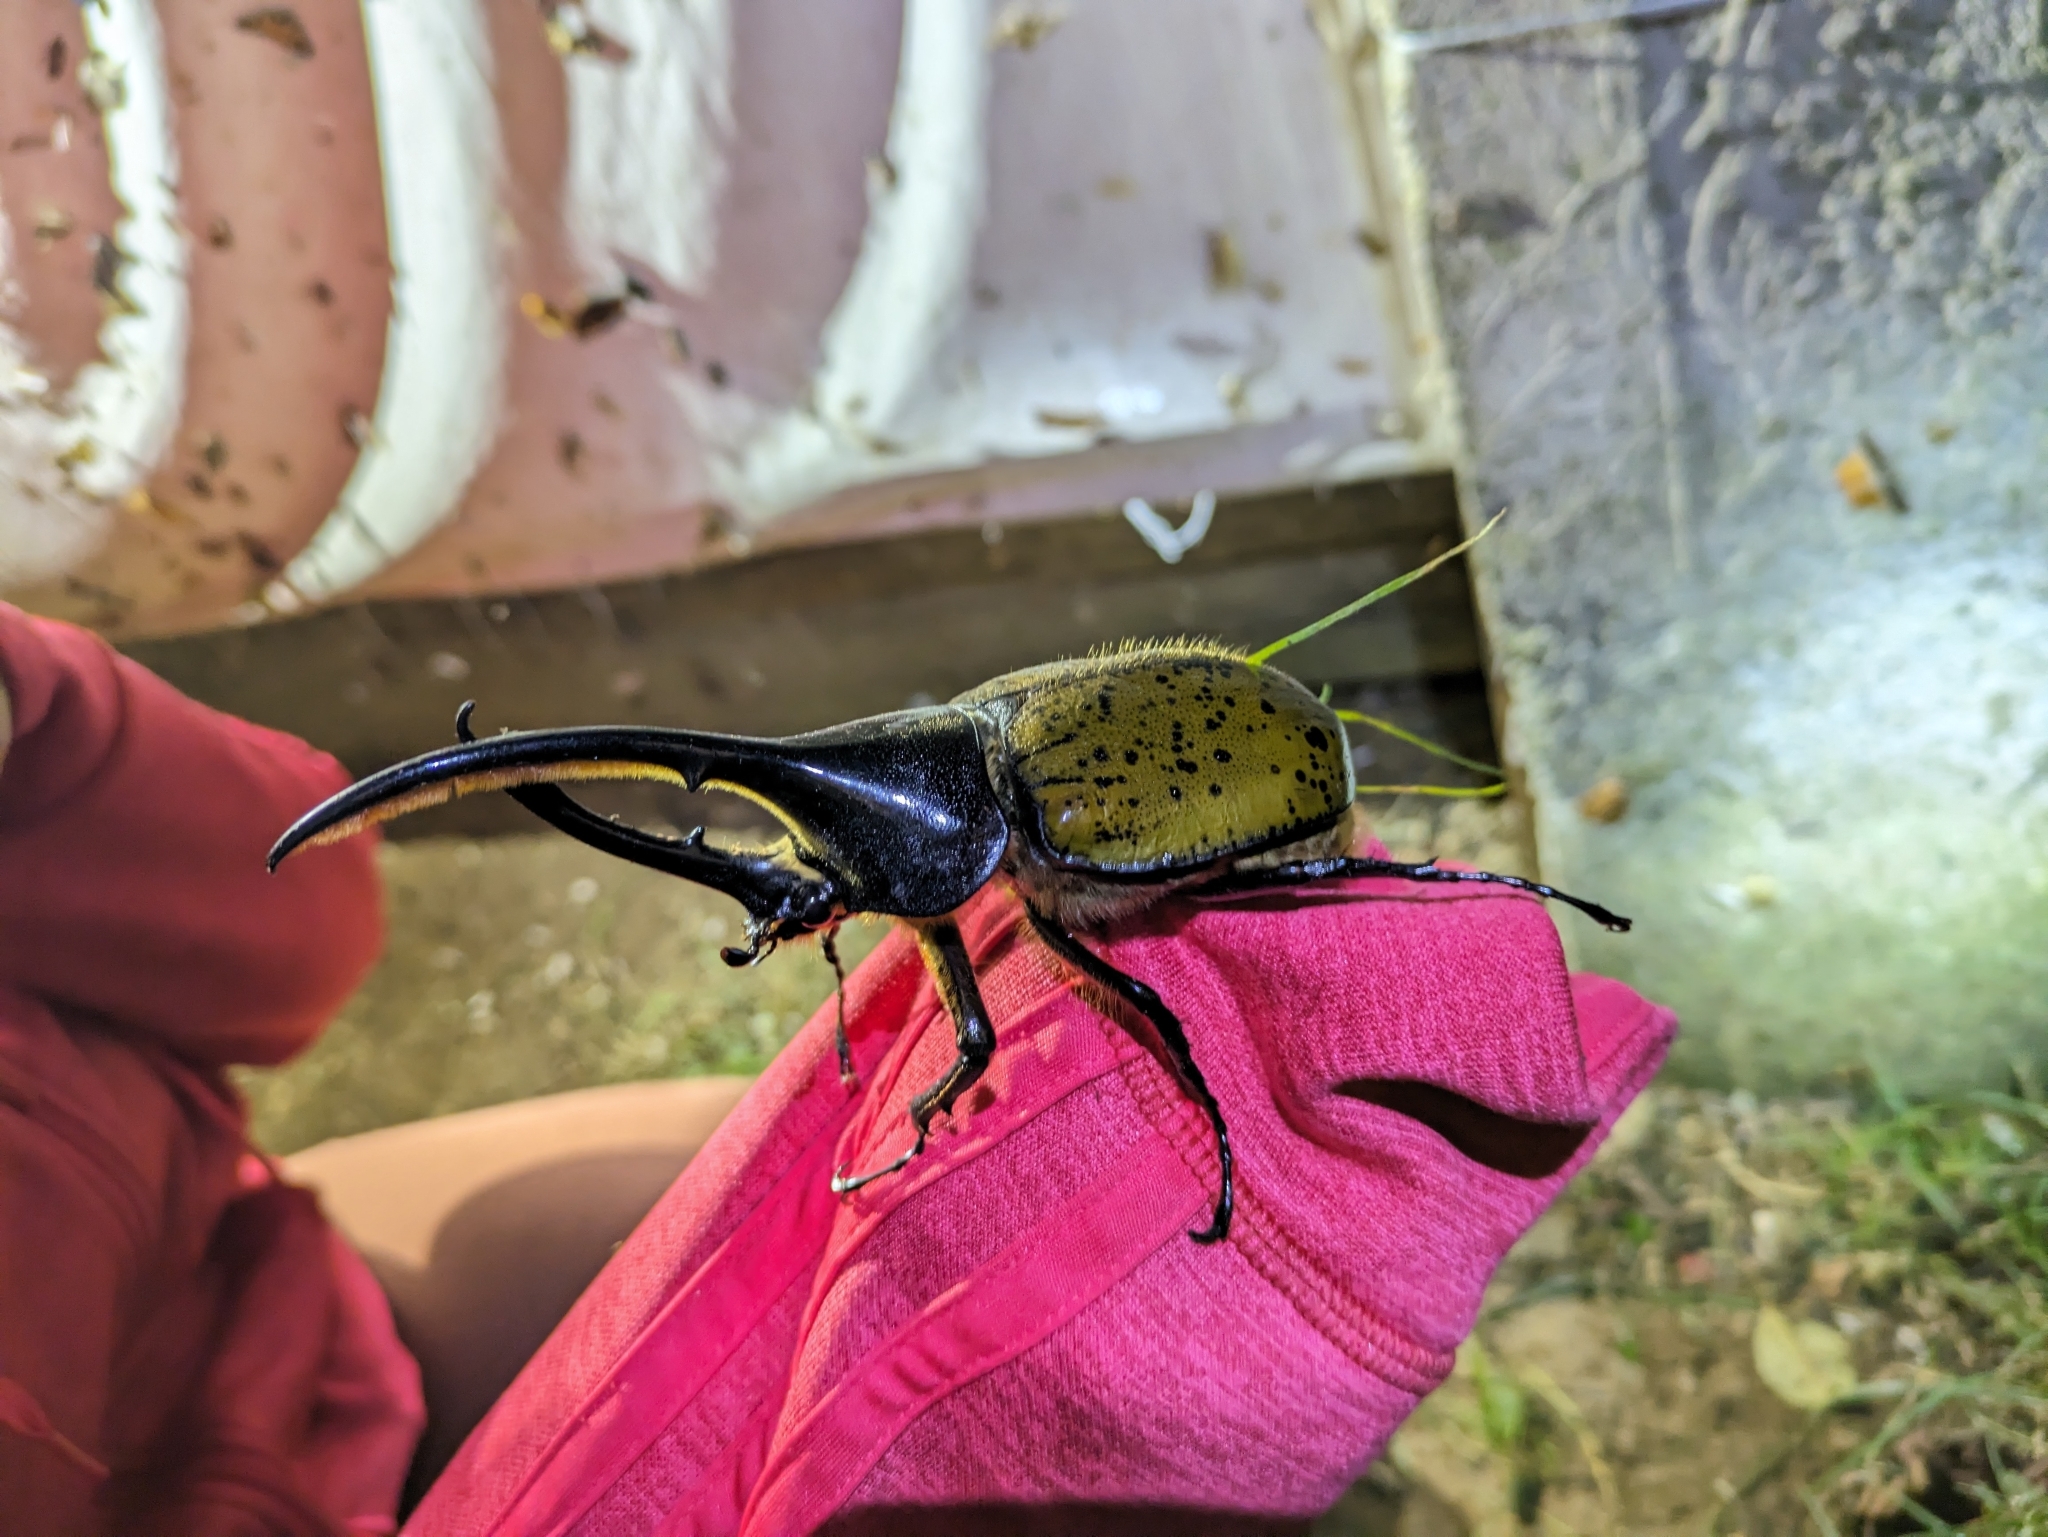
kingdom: Animalia
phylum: Arthropoda
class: Insecta
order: Coleoptera
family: Scarabaeidae
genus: Dynastes
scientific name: Dynastes
